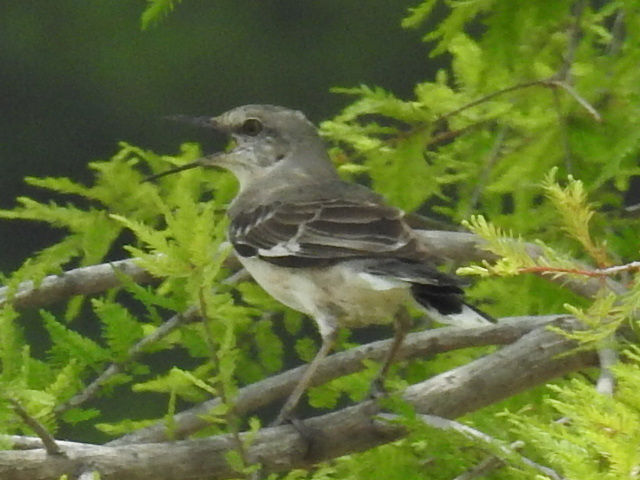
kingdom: Animalia
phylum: Chordata
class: Aves
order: Passeriformes
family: Mimidae
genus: Mimus
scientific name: Mimus polyglottos
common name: Northern mockingbird
